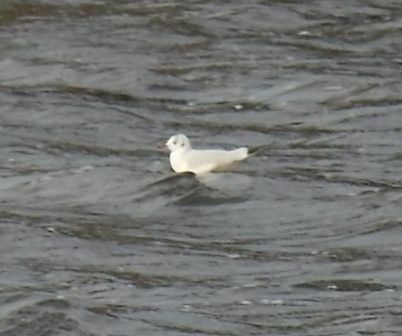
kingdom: Animalia
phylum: Chordata
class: Aves
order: Charadriiformes
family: Laridae
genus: Chroicocephalus
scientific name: Chroicocephalus ridibundus
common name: Black-headed gull
